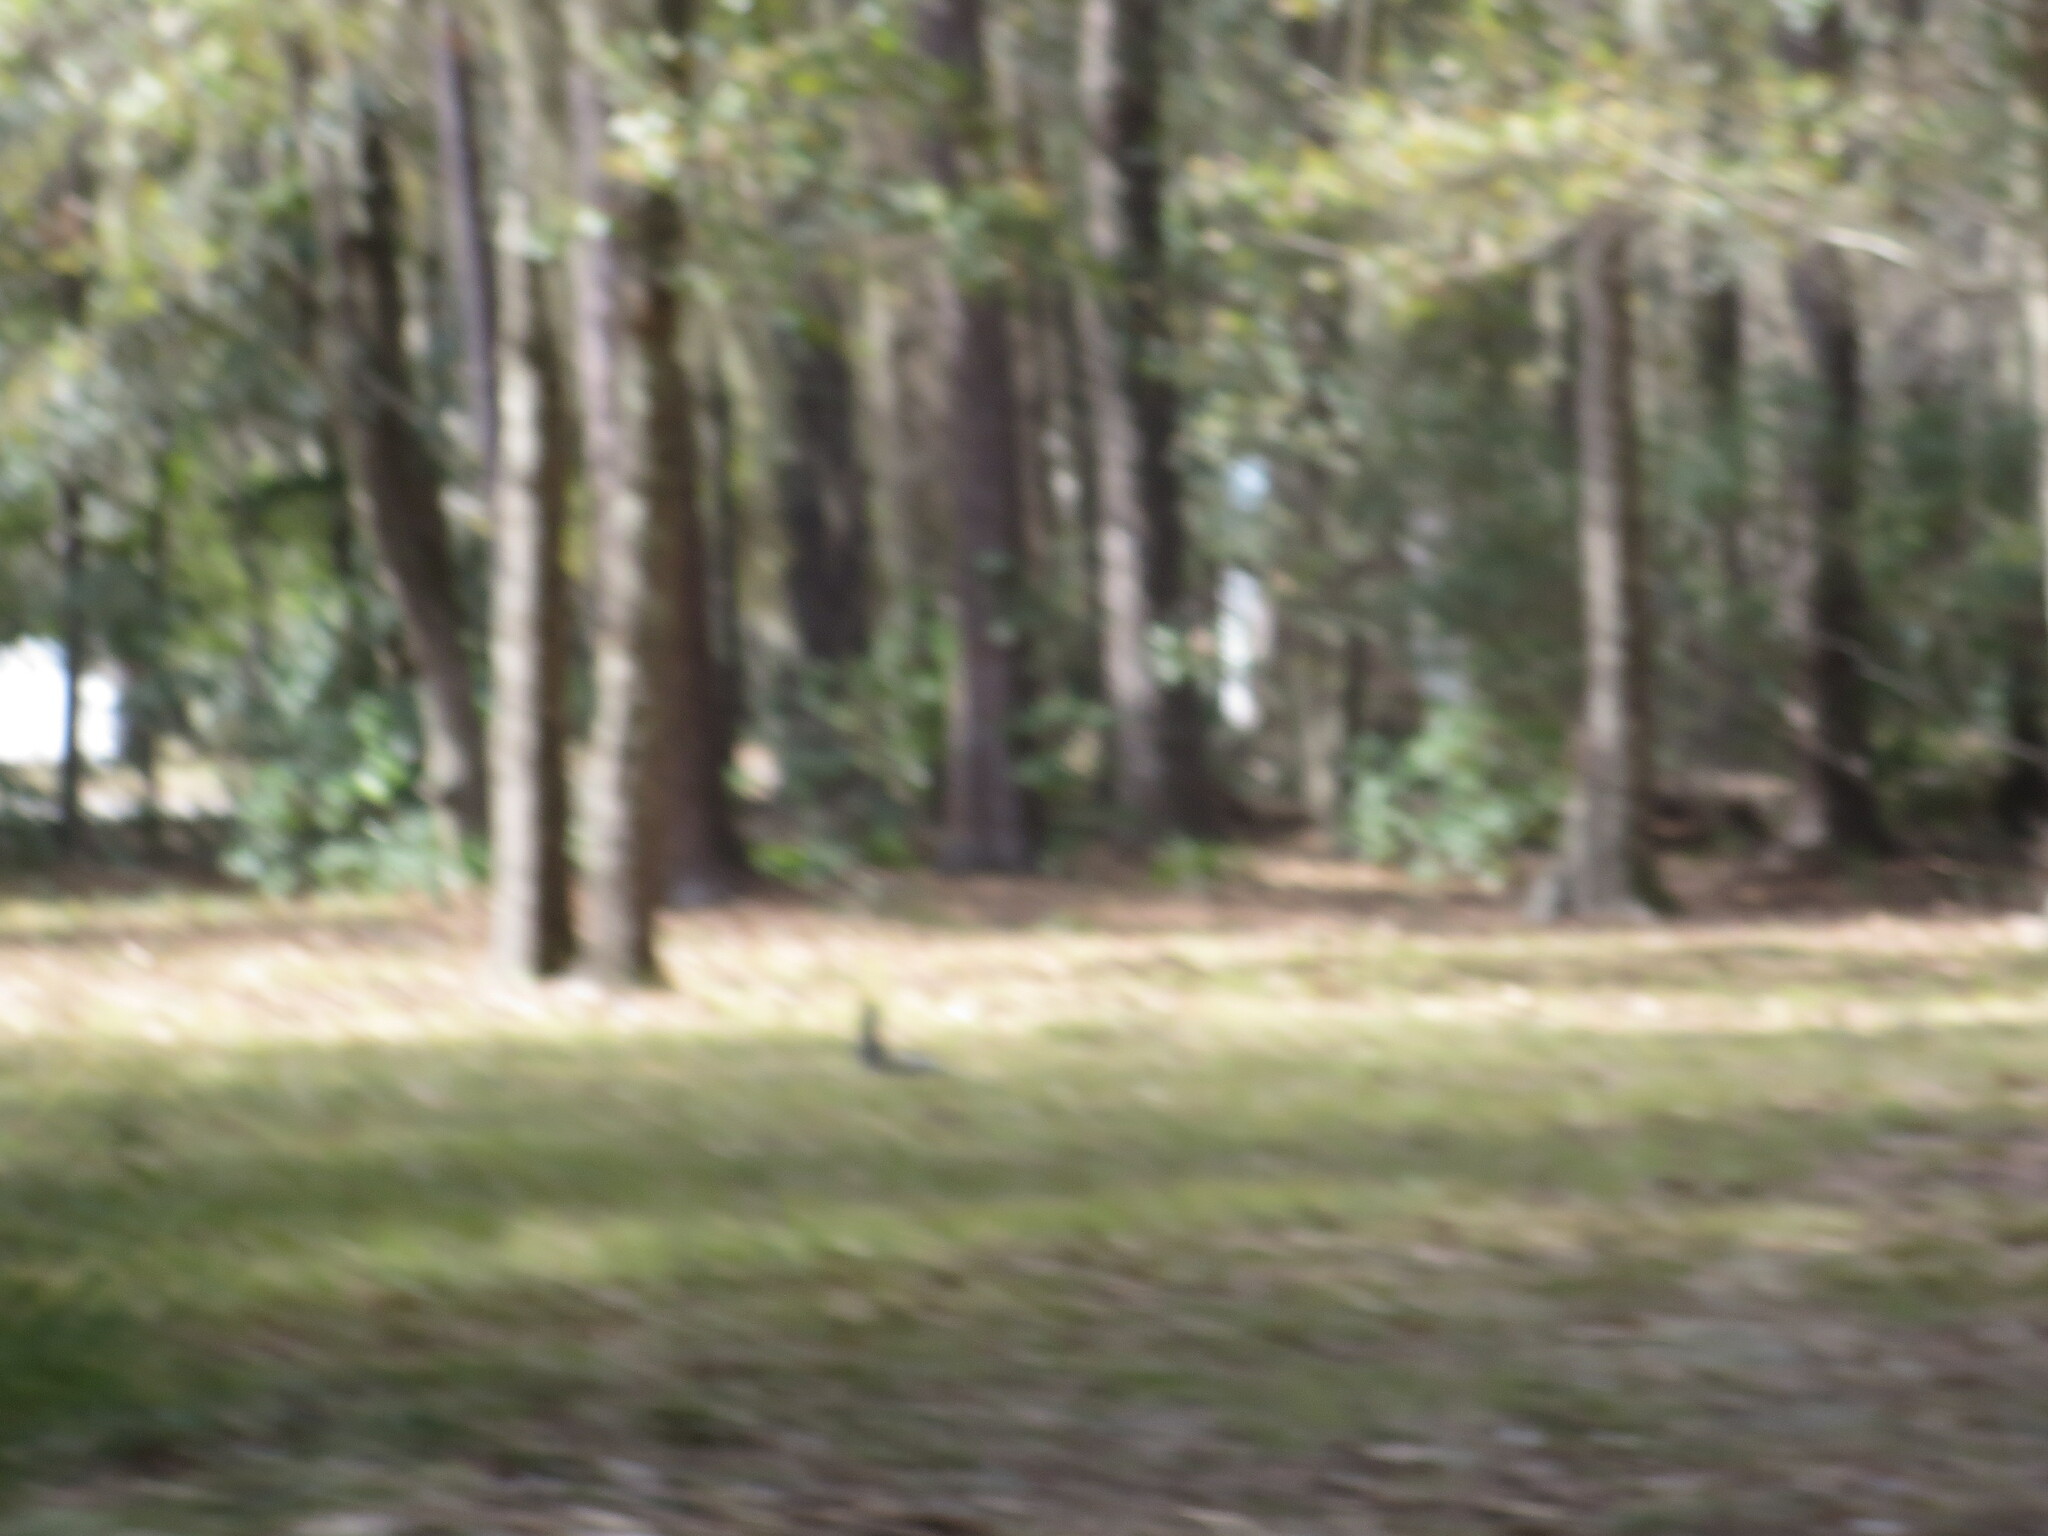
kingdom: Animalia
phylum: Chordata
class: Mammalia
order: Rodentia
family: Sciuridae
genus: Sciurus
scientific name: Sciurus carolinensis
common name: Eastern gray squirrel
